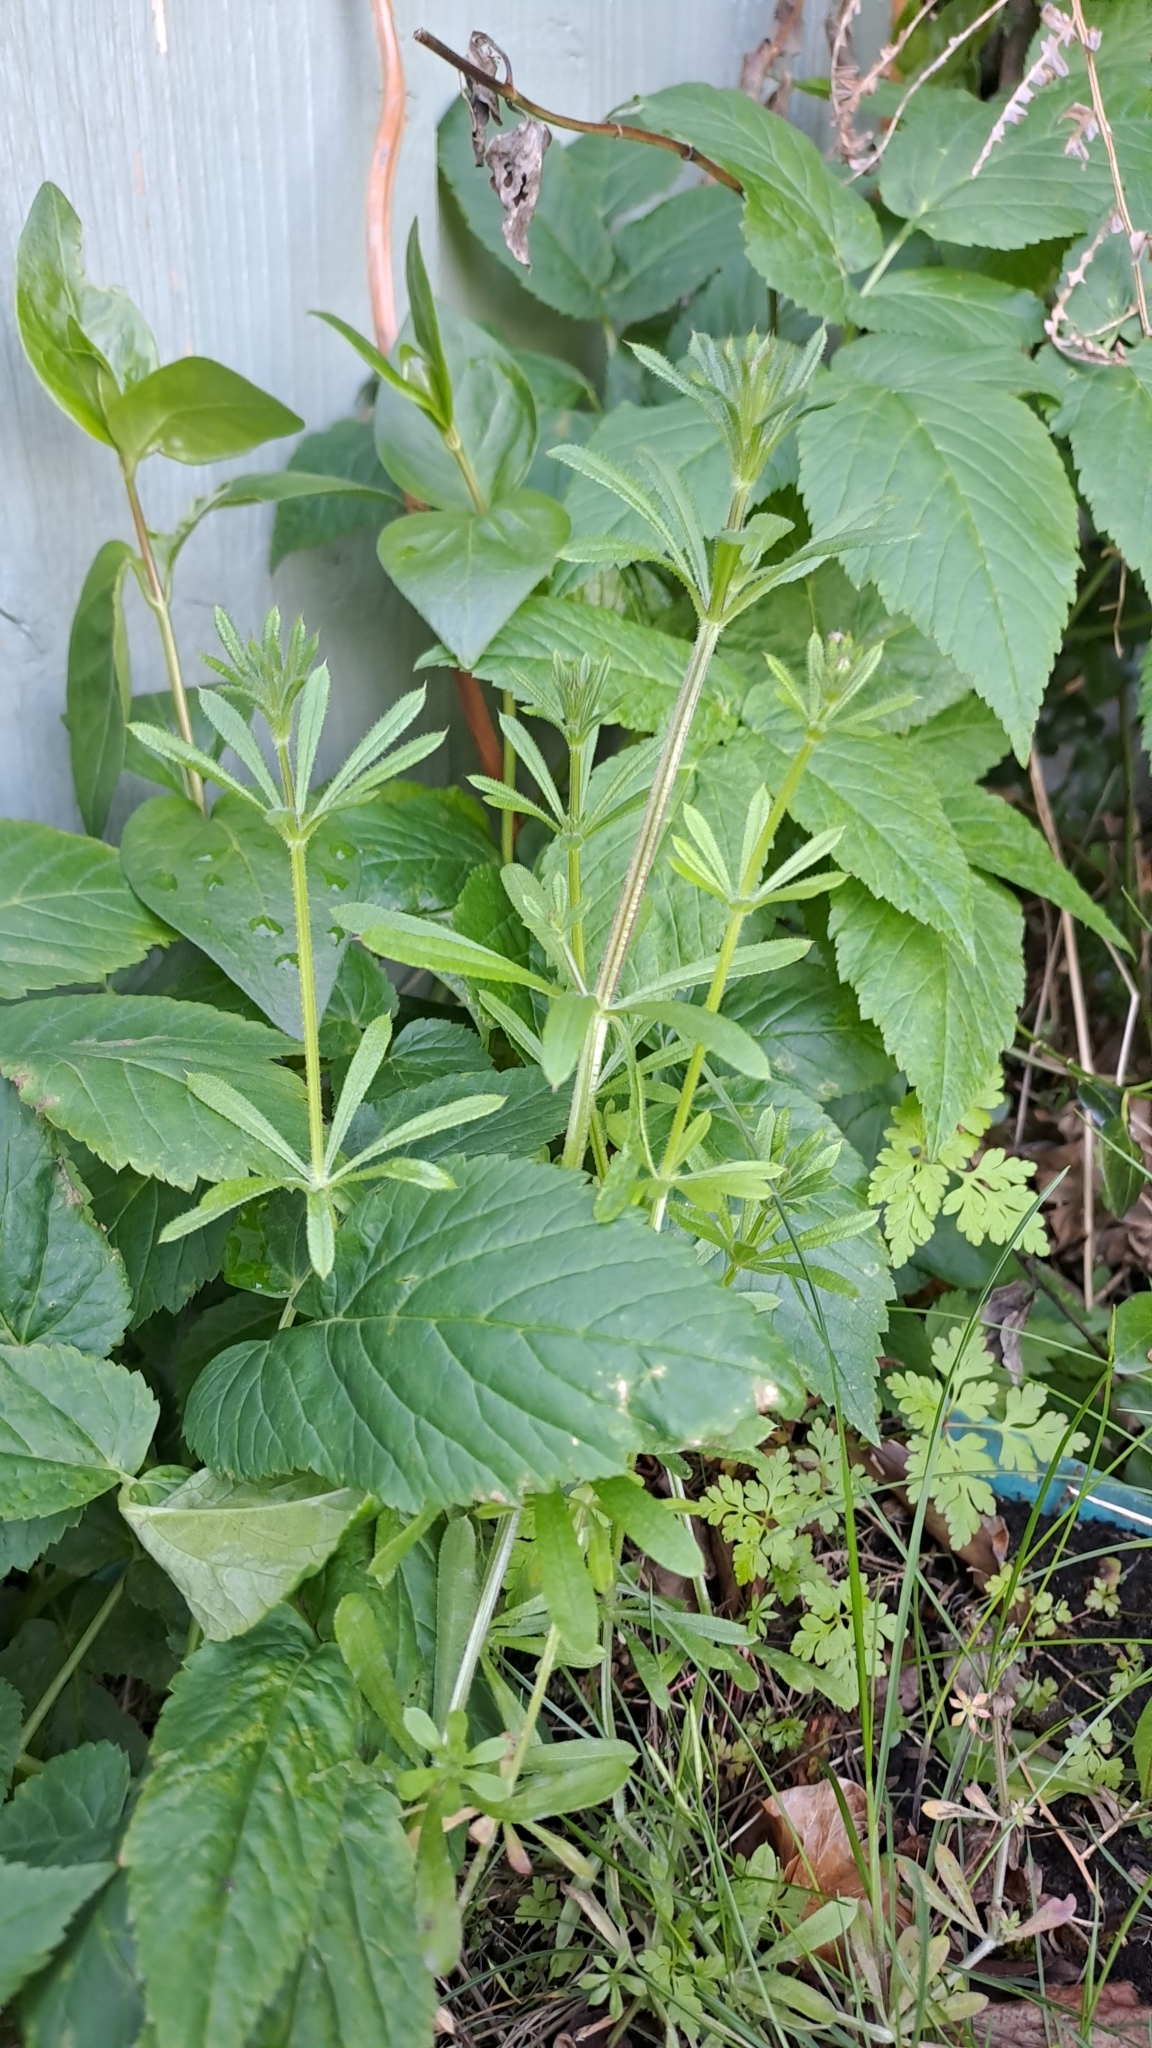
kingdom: Plantae
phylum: Tracheophyta
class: Magnoliopsida
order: Gentianales
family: Rubiaceae
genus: Galium
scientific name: Galium aparine
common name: Cleavers
